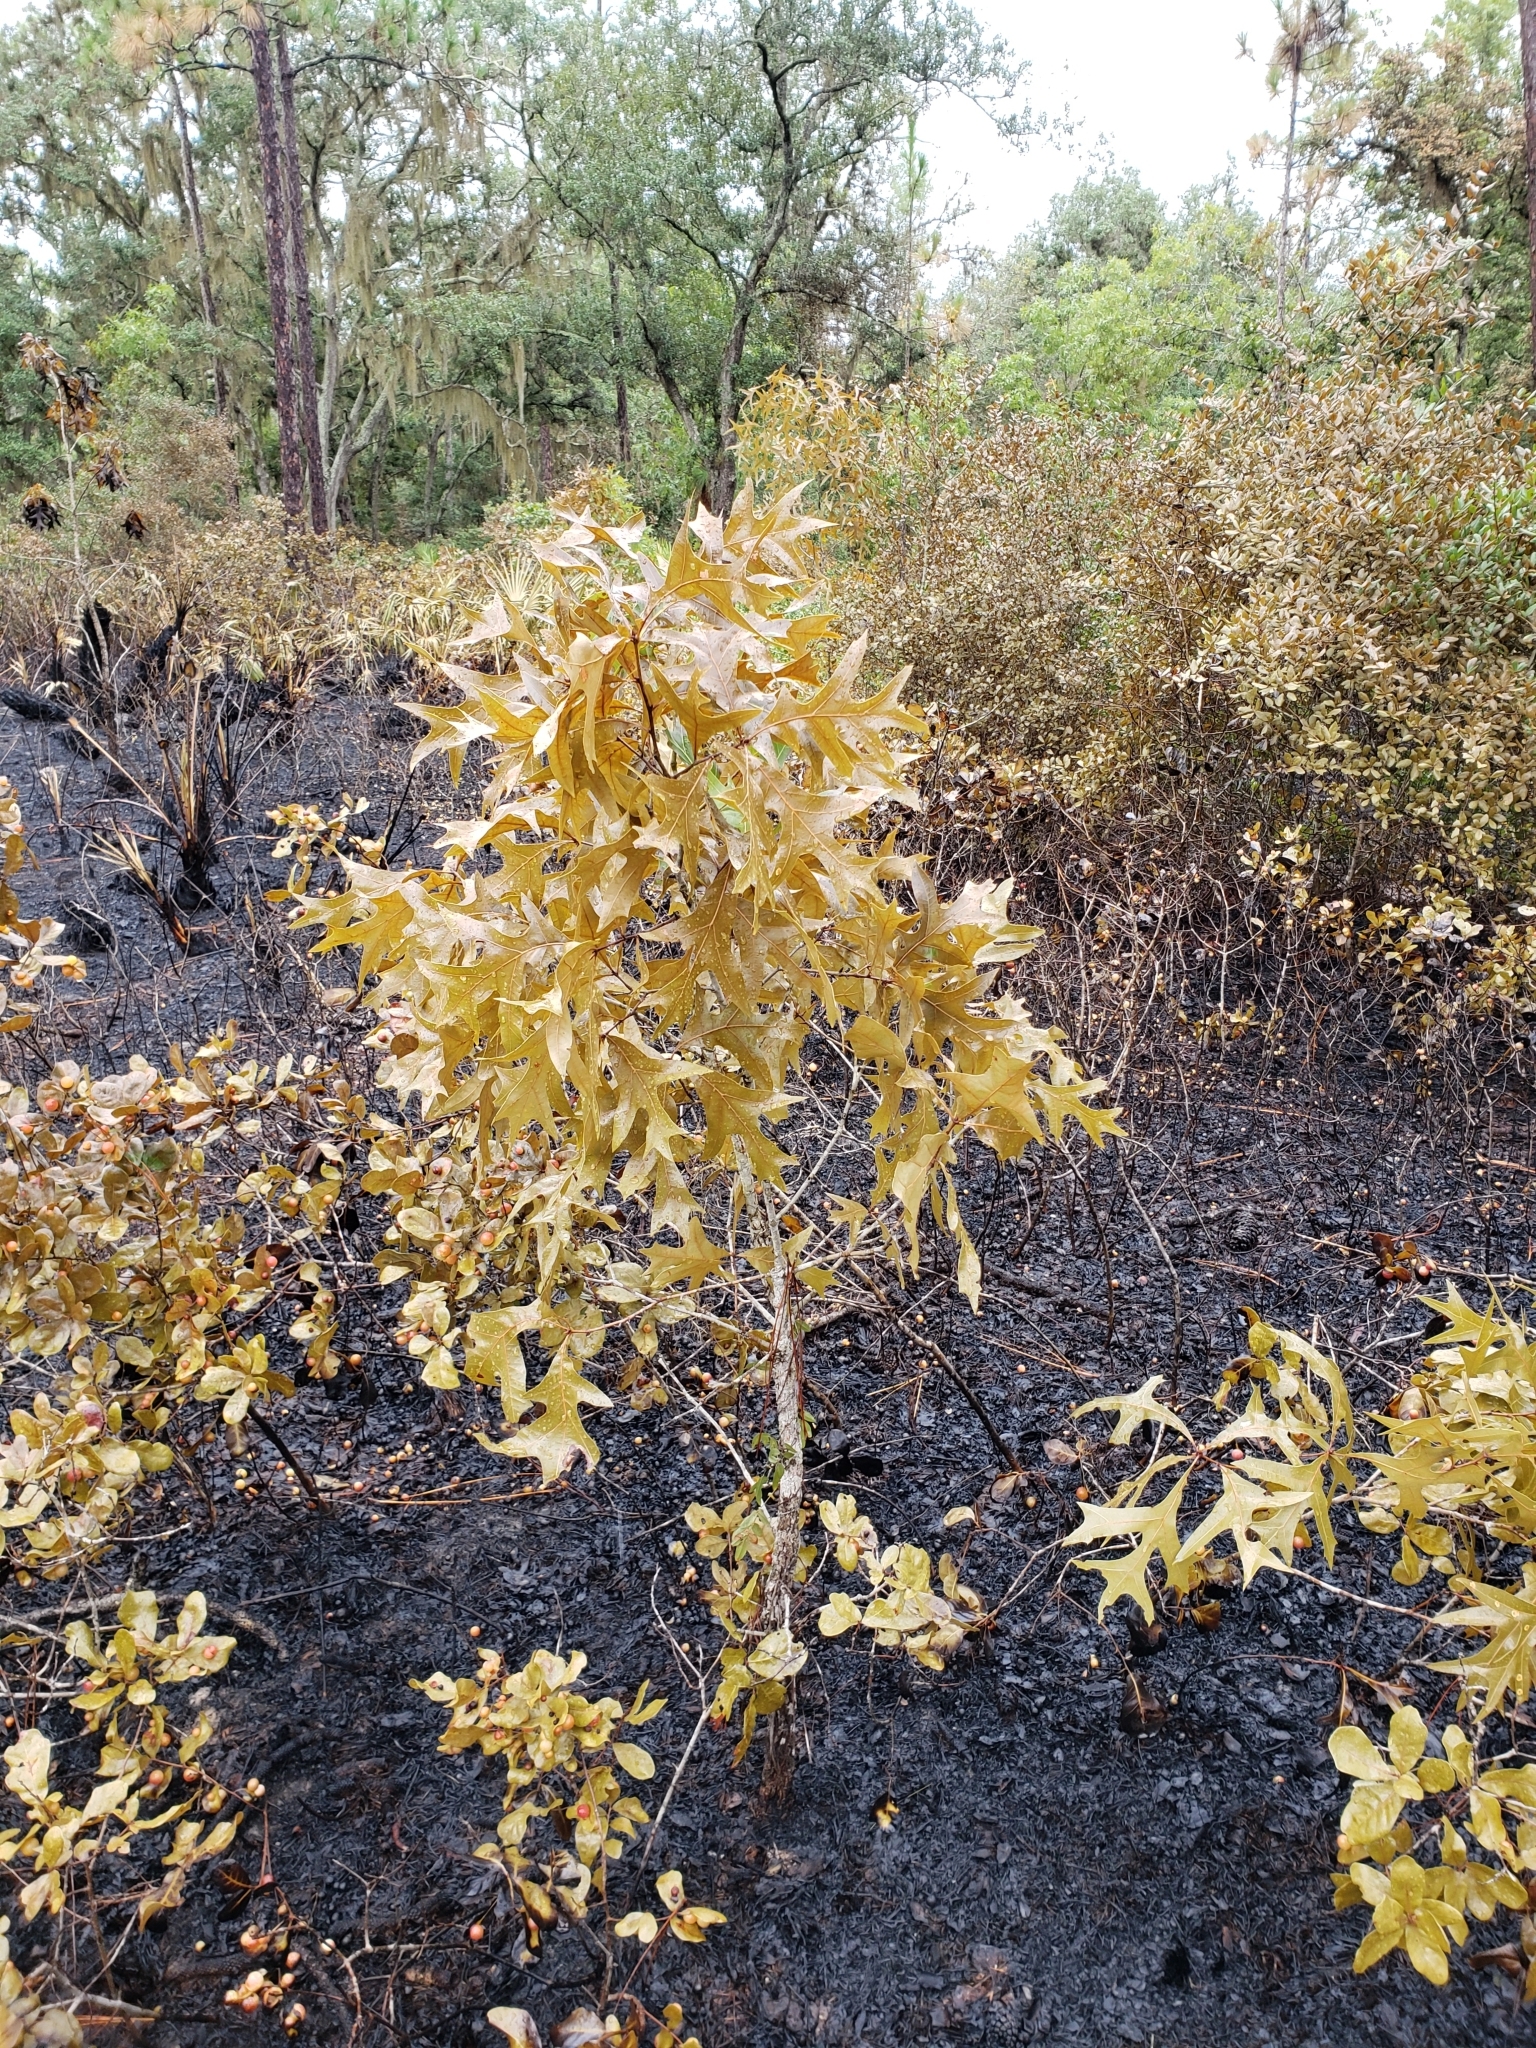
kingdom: Plantae
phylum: Tracheophyta
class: Magnoliopsida
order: Fagales
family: Fagaceae
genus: Quercus
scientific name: Quercus laevis
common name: Turkey oak
